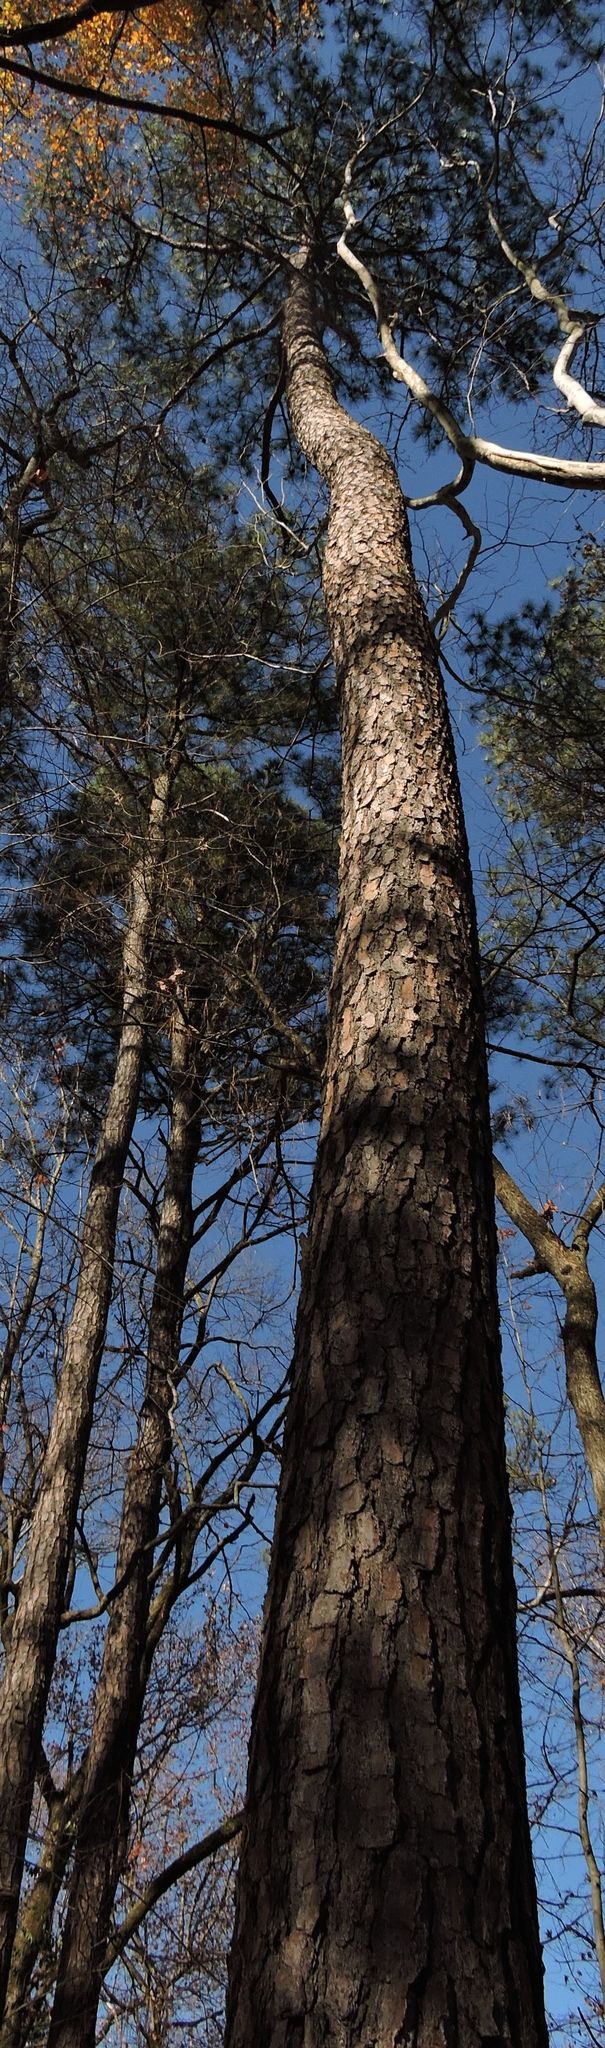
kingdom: Plantae
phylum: Tracheophyta
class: Pinopsida
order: Pinales
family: Pinaceae
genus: Pinus
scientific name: Pinus taeda
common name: Loblolly pine
